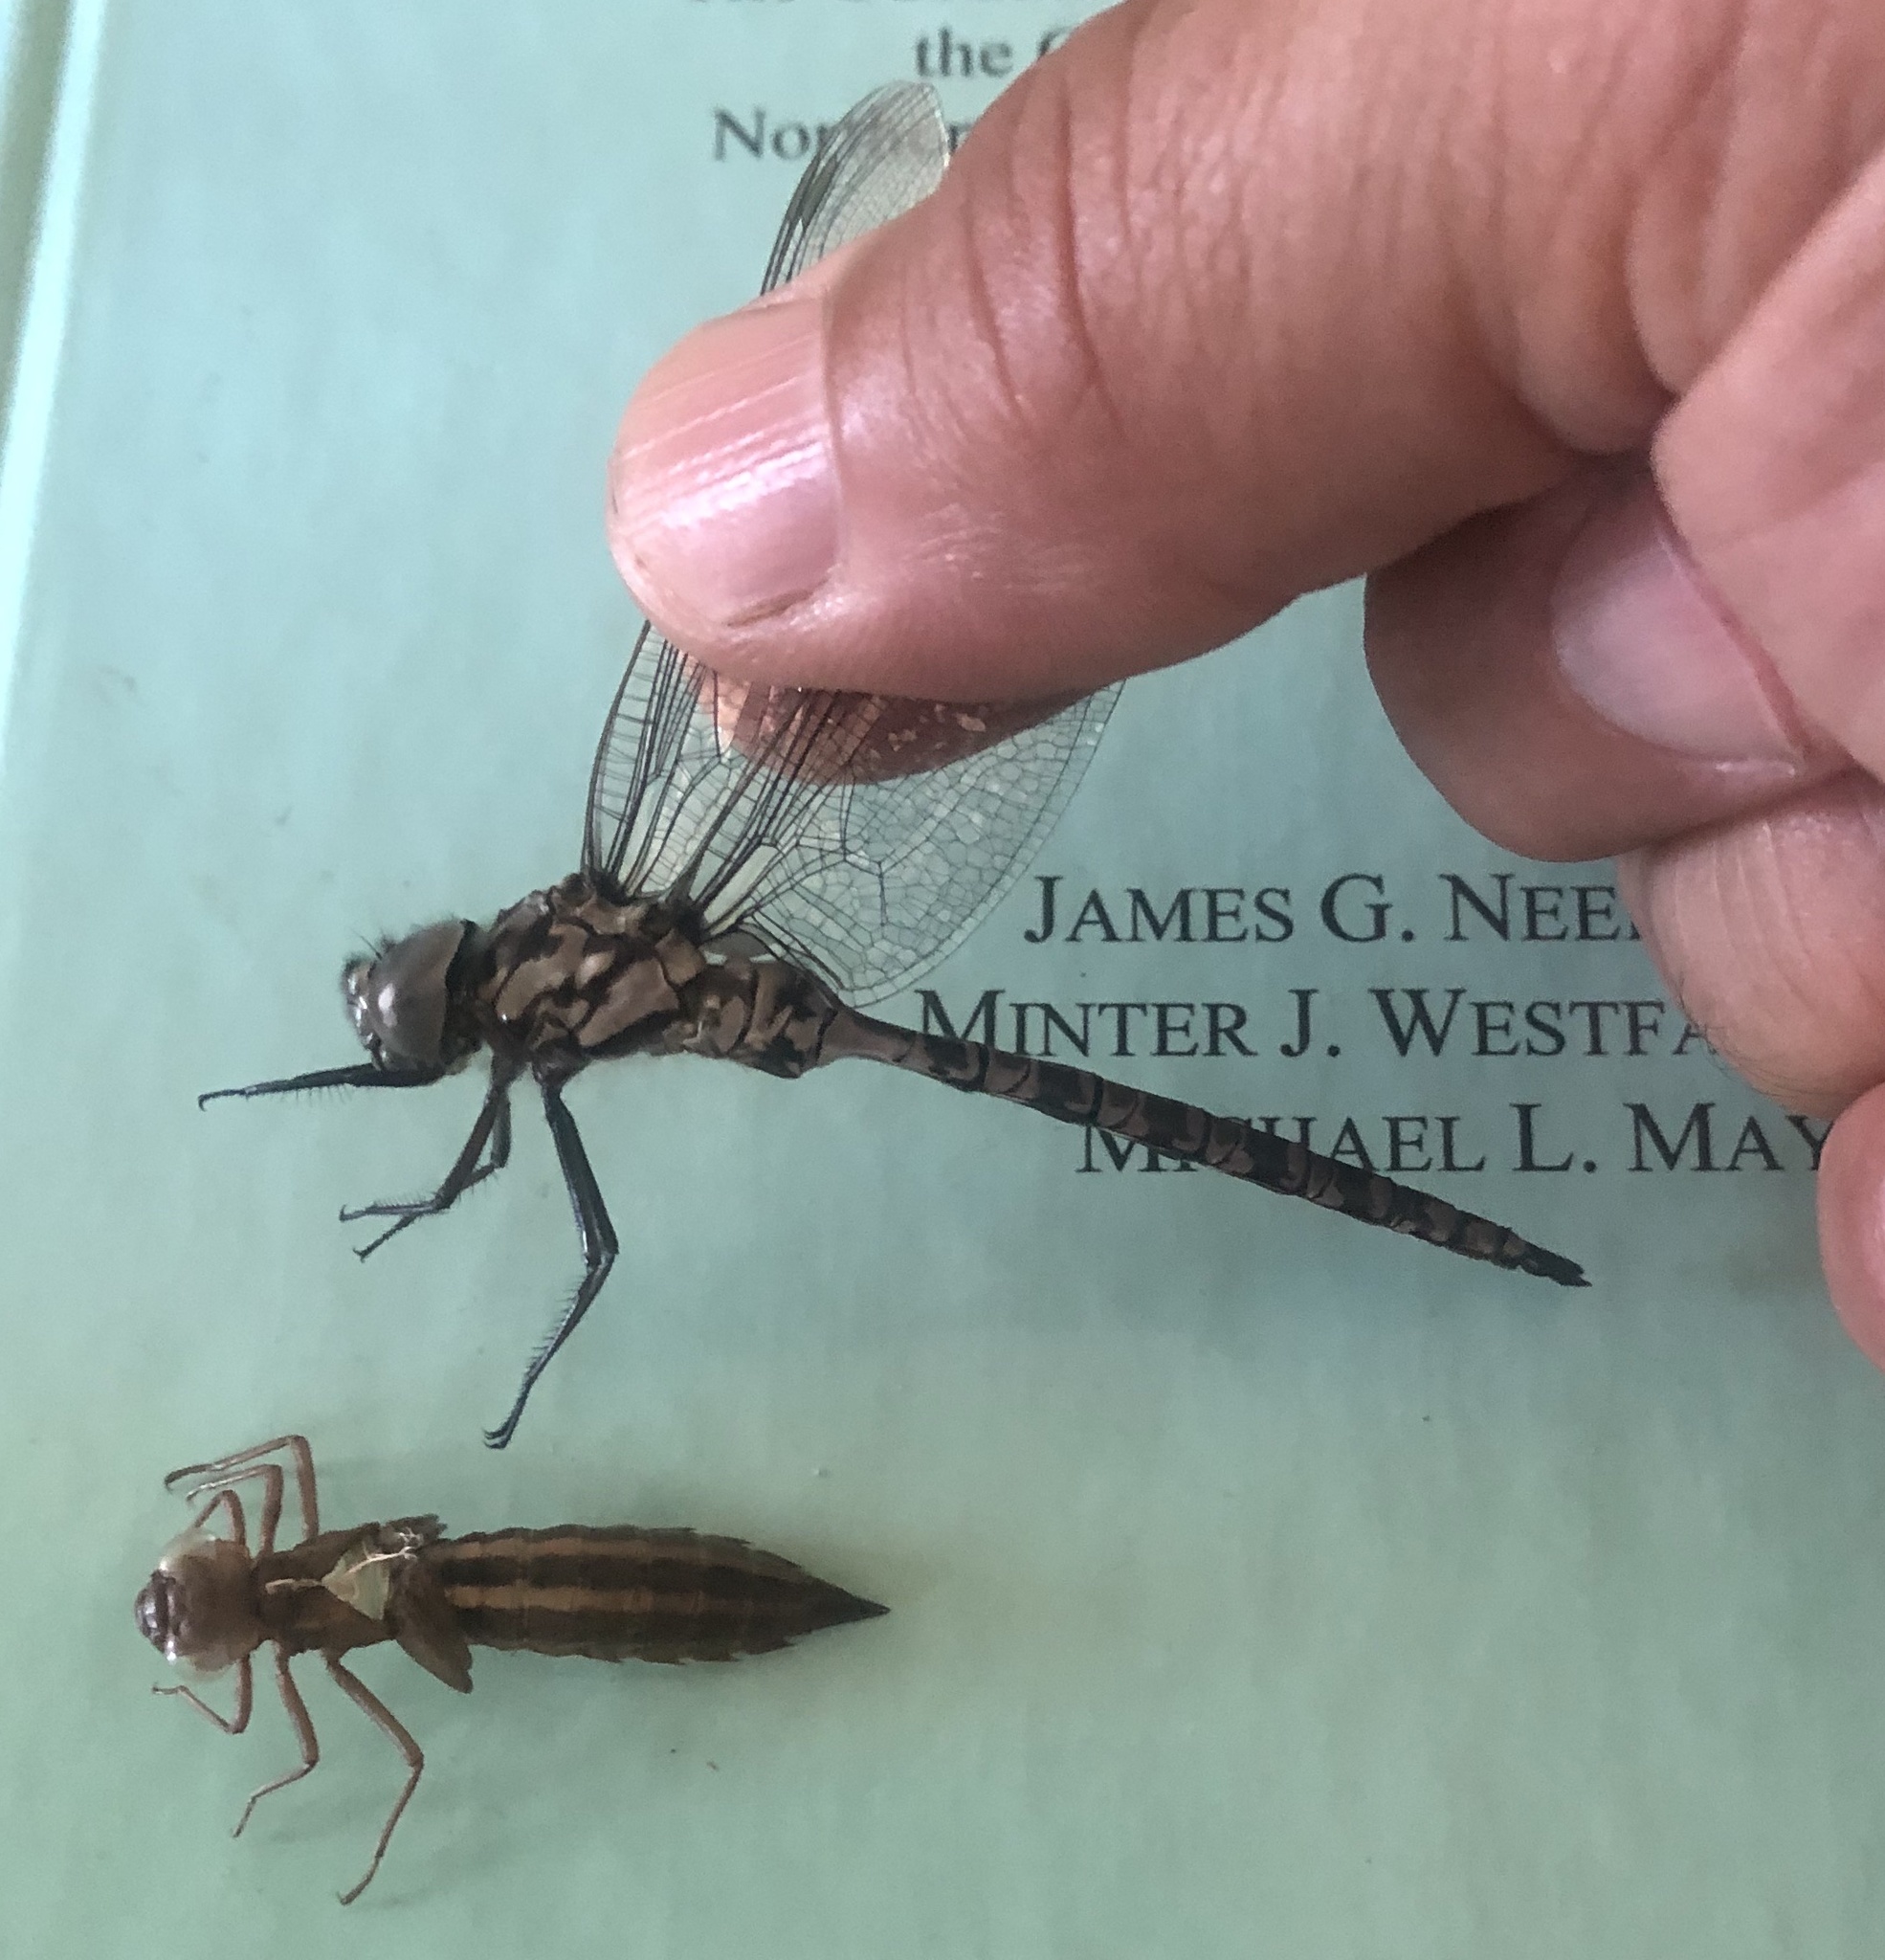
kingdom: Animalia
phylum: Arthropoda
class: Insecta
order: Odonata
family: Aeshnidae
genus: Aeshna
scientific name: Aeshna clepsydra
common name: Mottled darner
